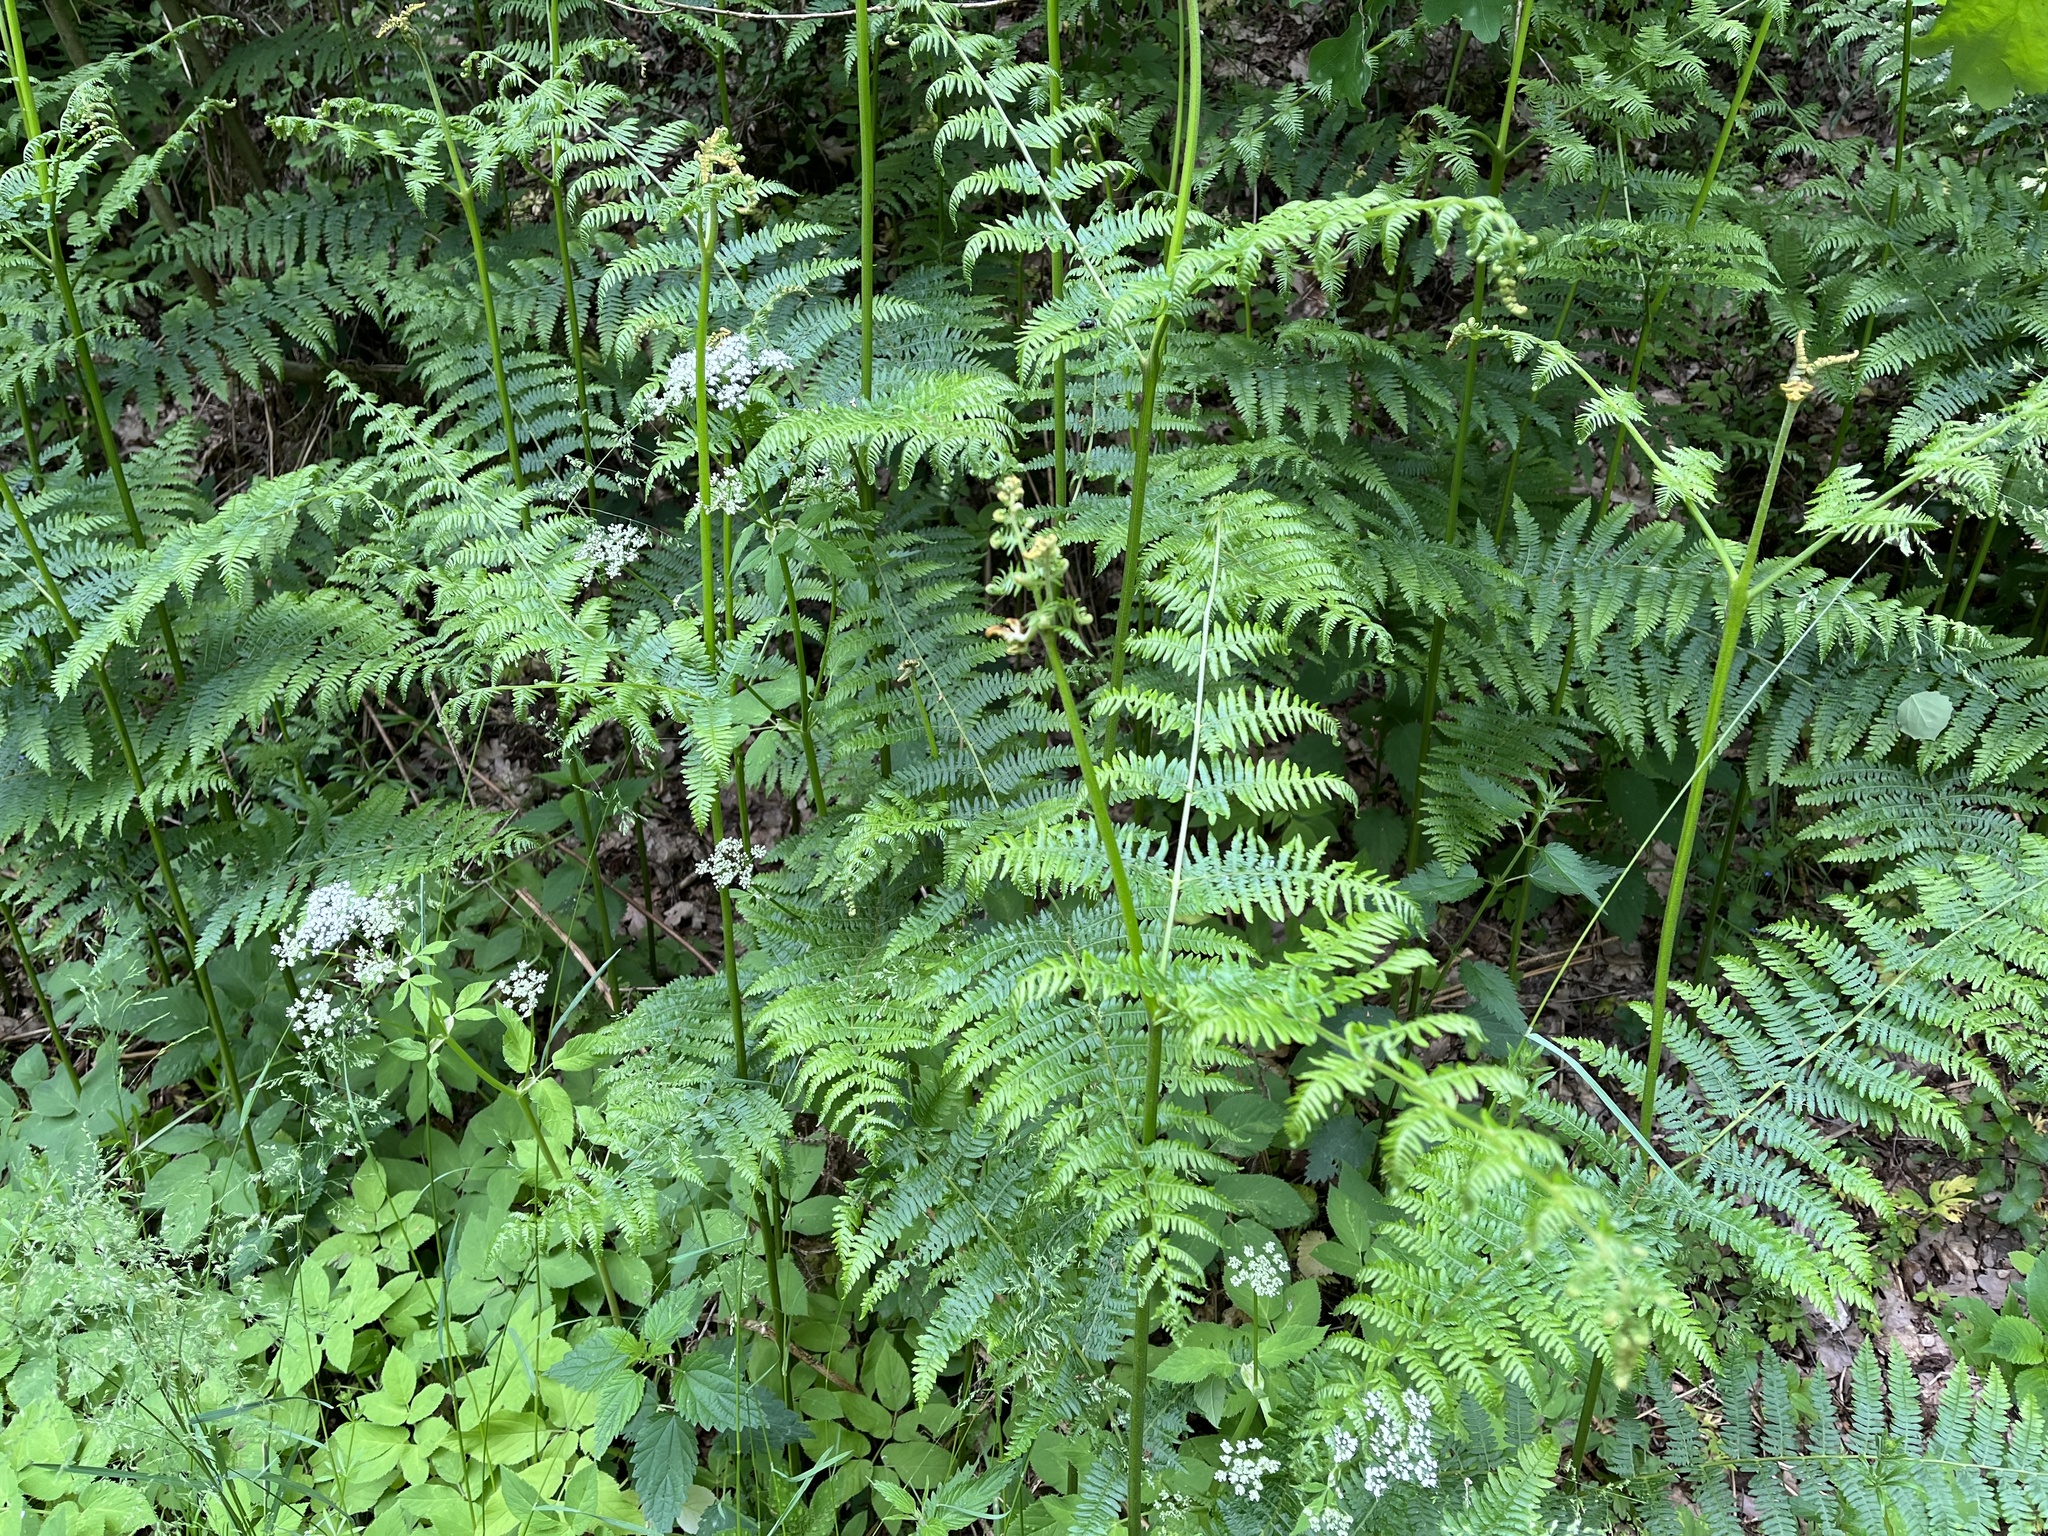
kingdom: Plantae
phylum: Tracheophyta
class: Polypodiopsida
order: Polypodiales
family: Dennstaedtiaceae
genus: Pteridium
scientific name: Pteridium aquilinum
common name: Bracken
